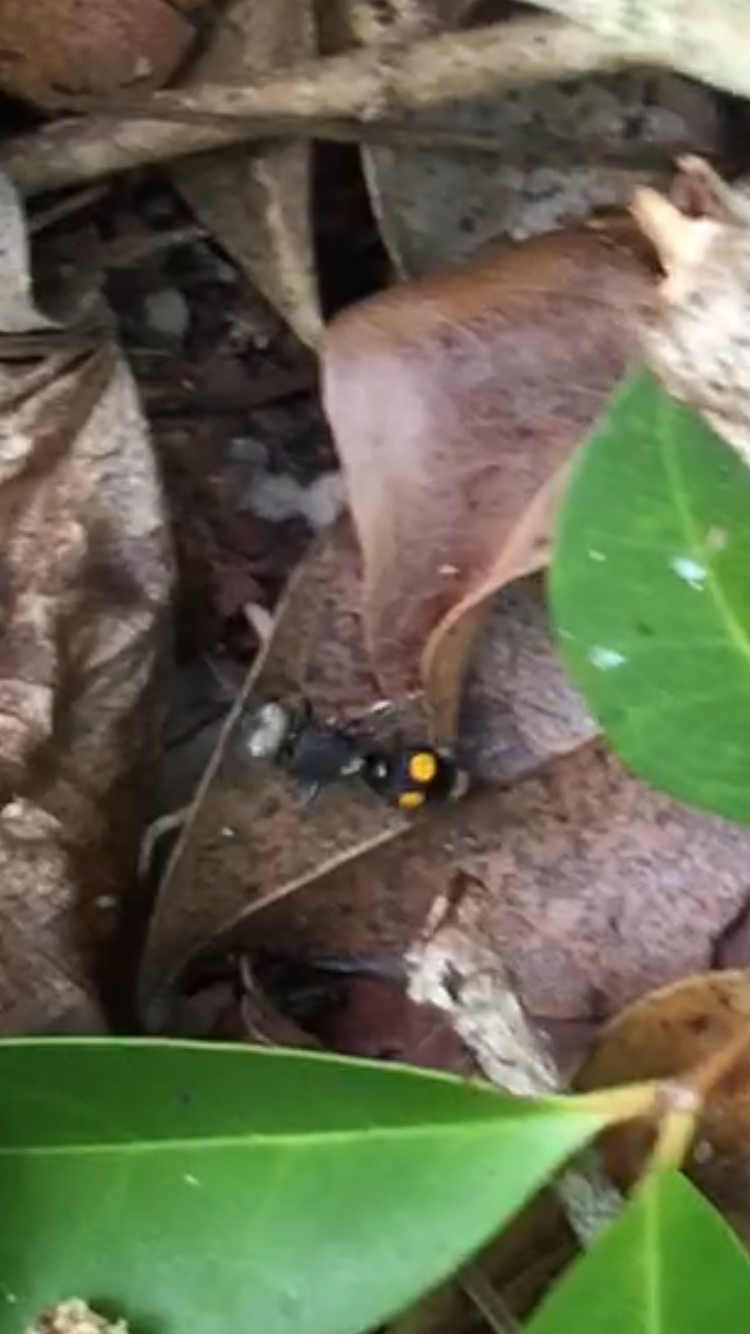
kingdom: Animalia
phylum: Arthropoda
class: Insecta
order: Hymenoptera
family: Mutillidae
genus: Dasymutilla
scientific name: Dasymutilla
